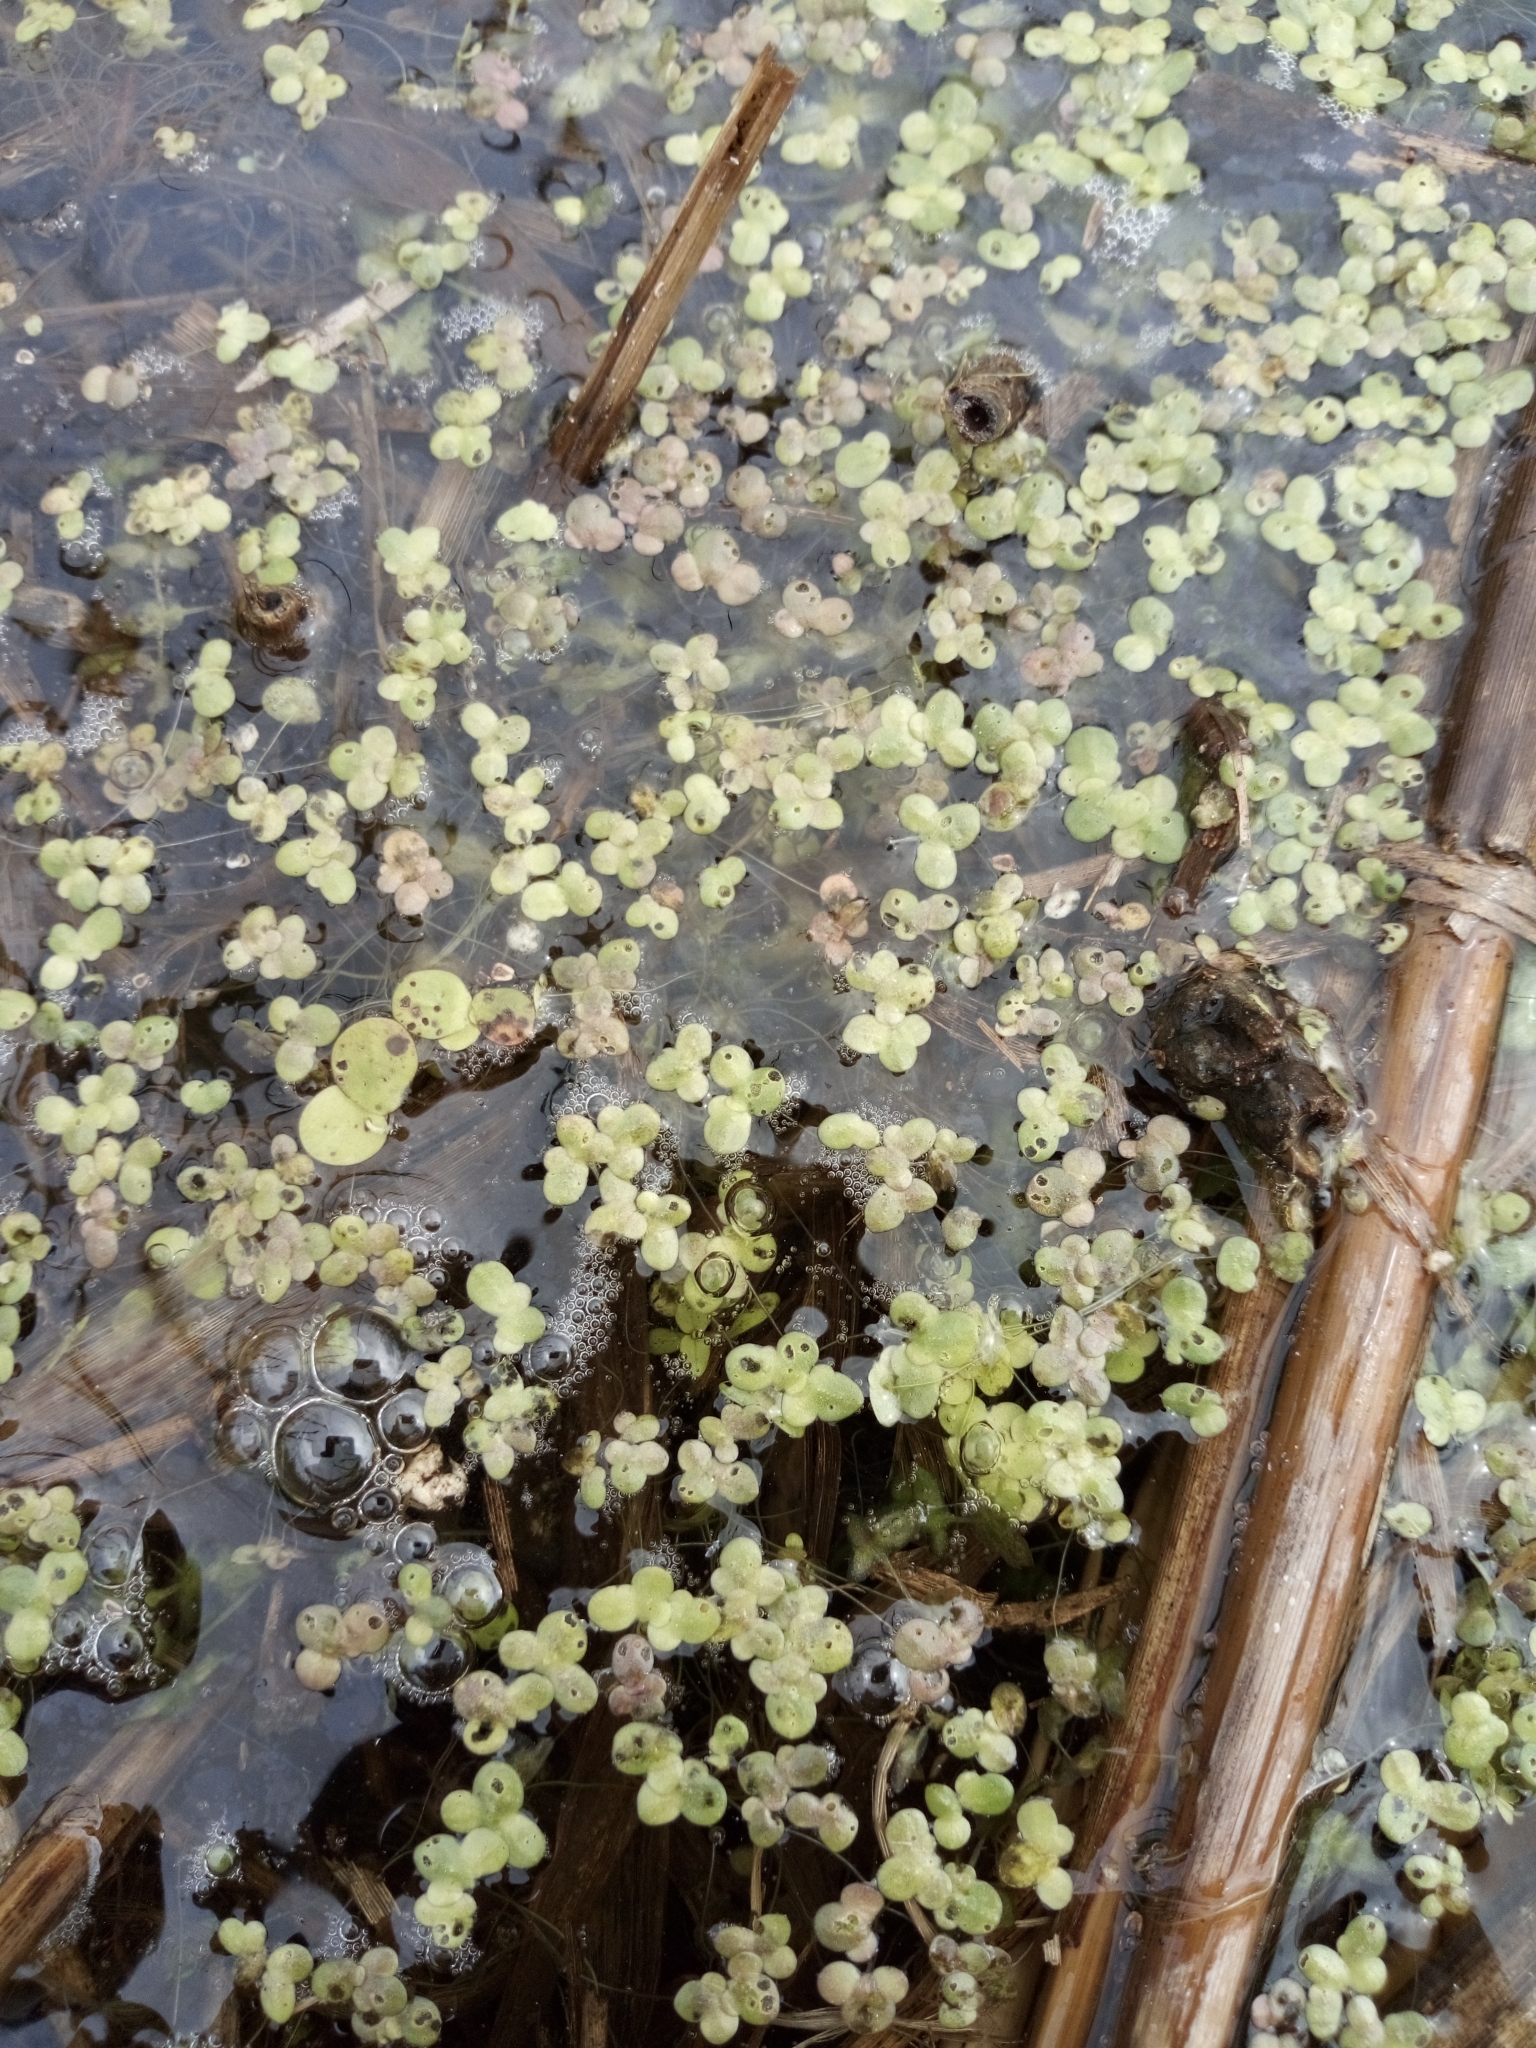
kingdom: Plantae
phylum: Tracheophyta
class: Liliopsida
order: Alismatales
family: Araceae
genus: Lemna
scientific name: Lemna minor
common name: Common duckweed
